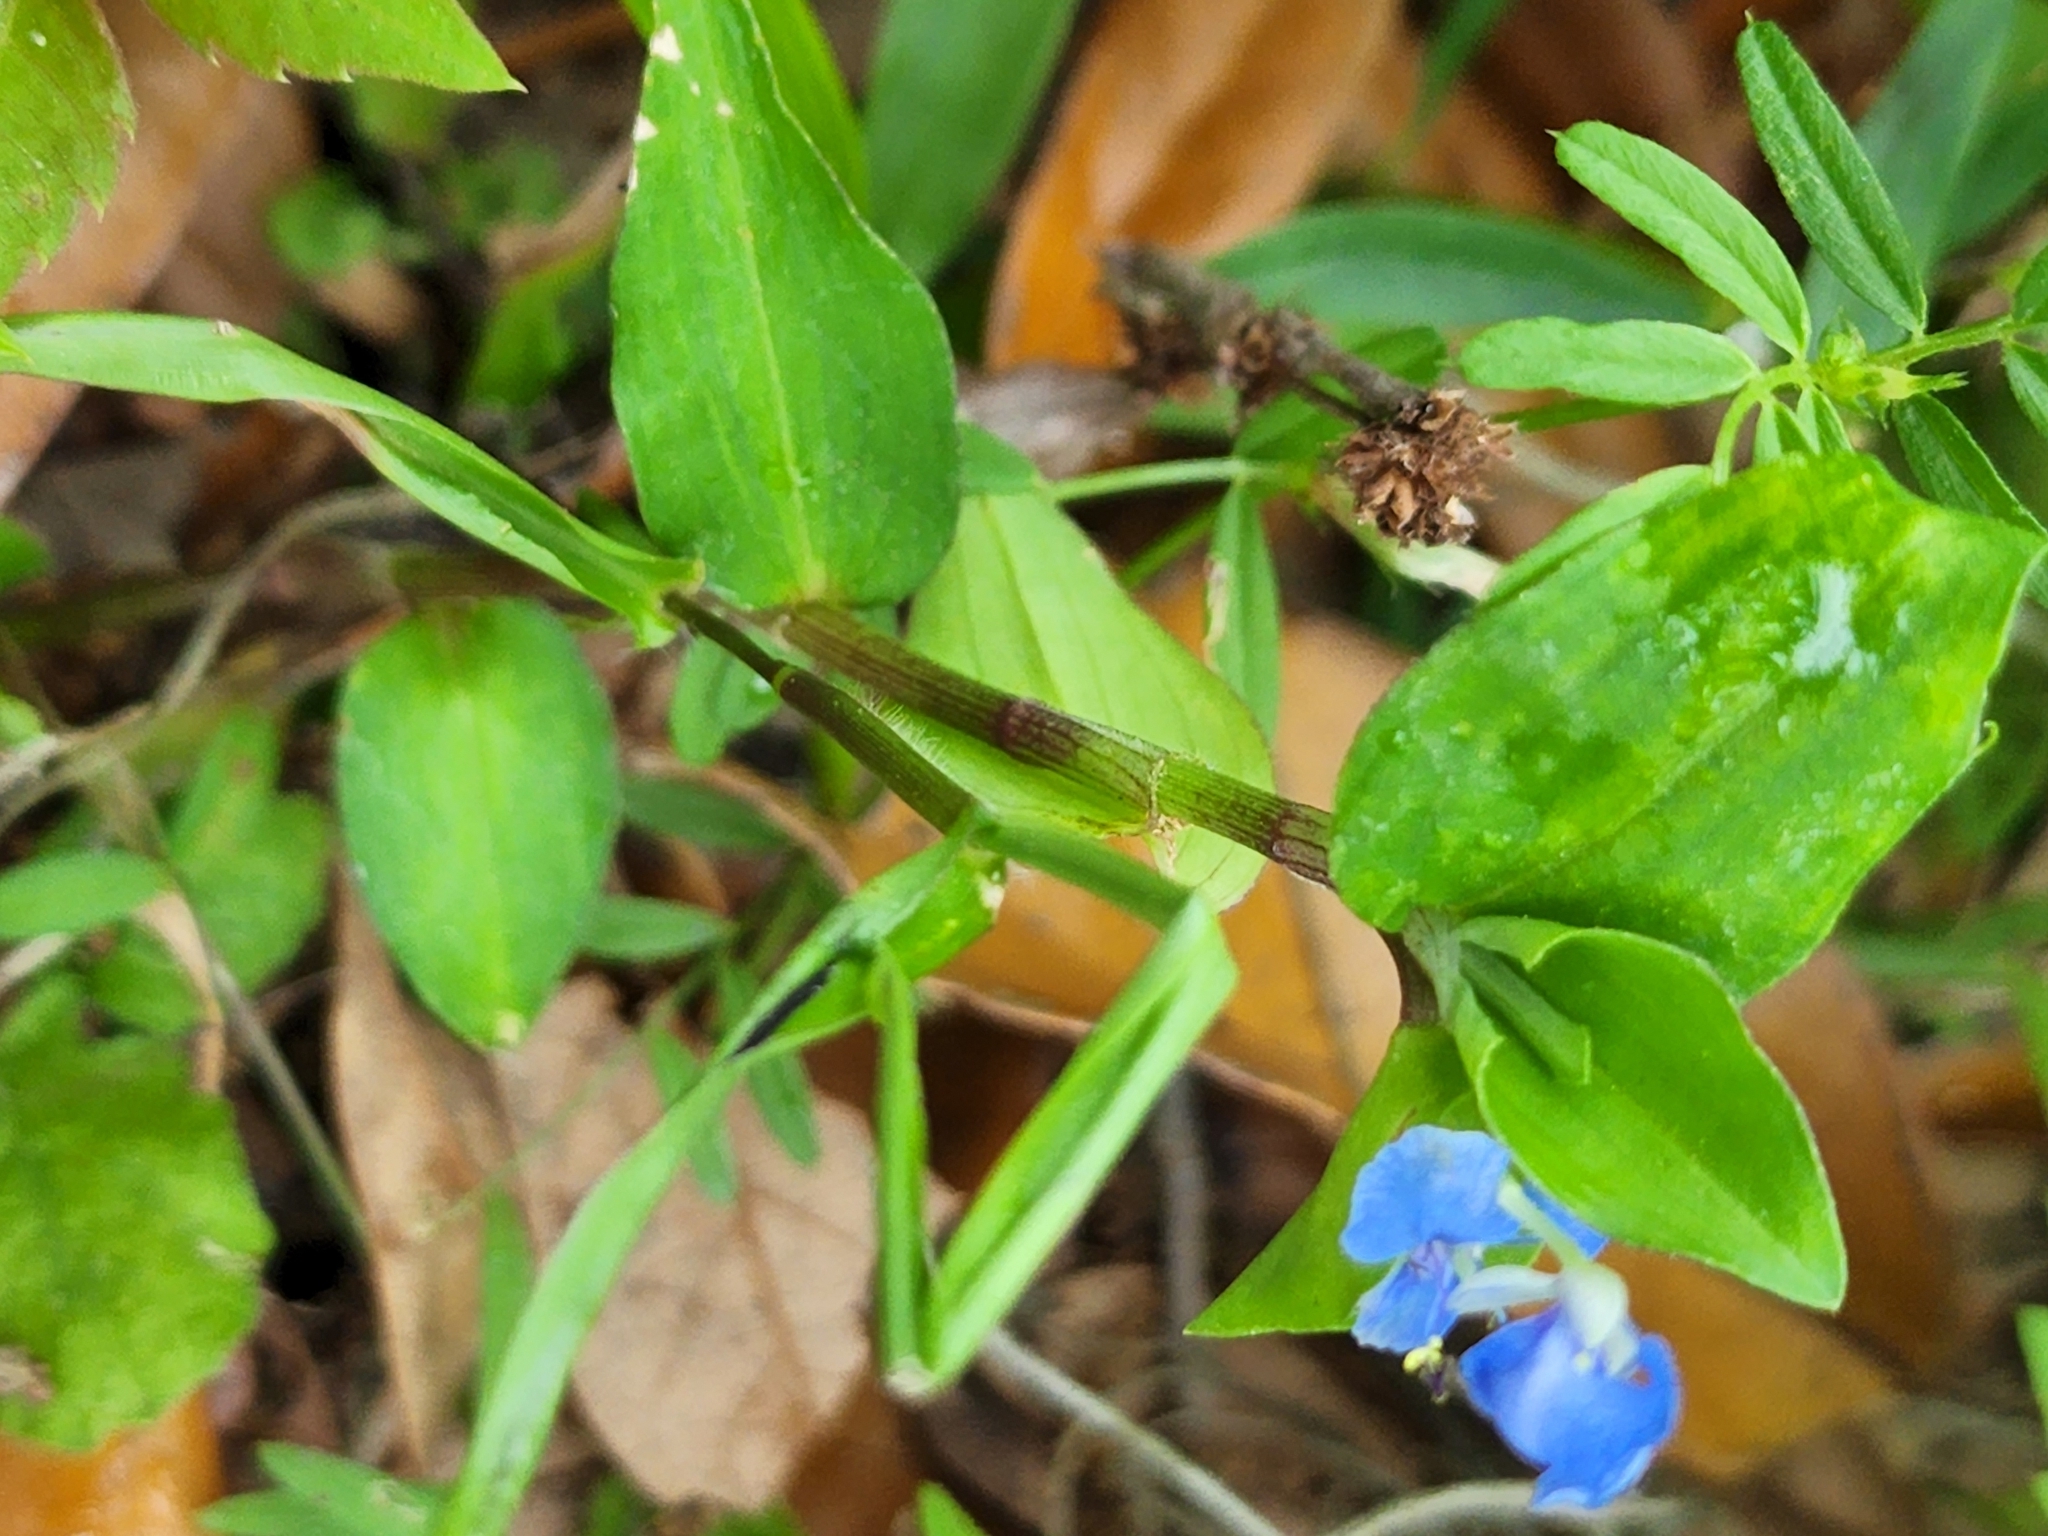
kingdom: Plantae
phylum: Tracheophyta
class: Liliopsida
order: Commelinales
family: Commelinaceae
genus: Commelina
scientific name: Commelina diffusa
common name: Climbing dayflower
